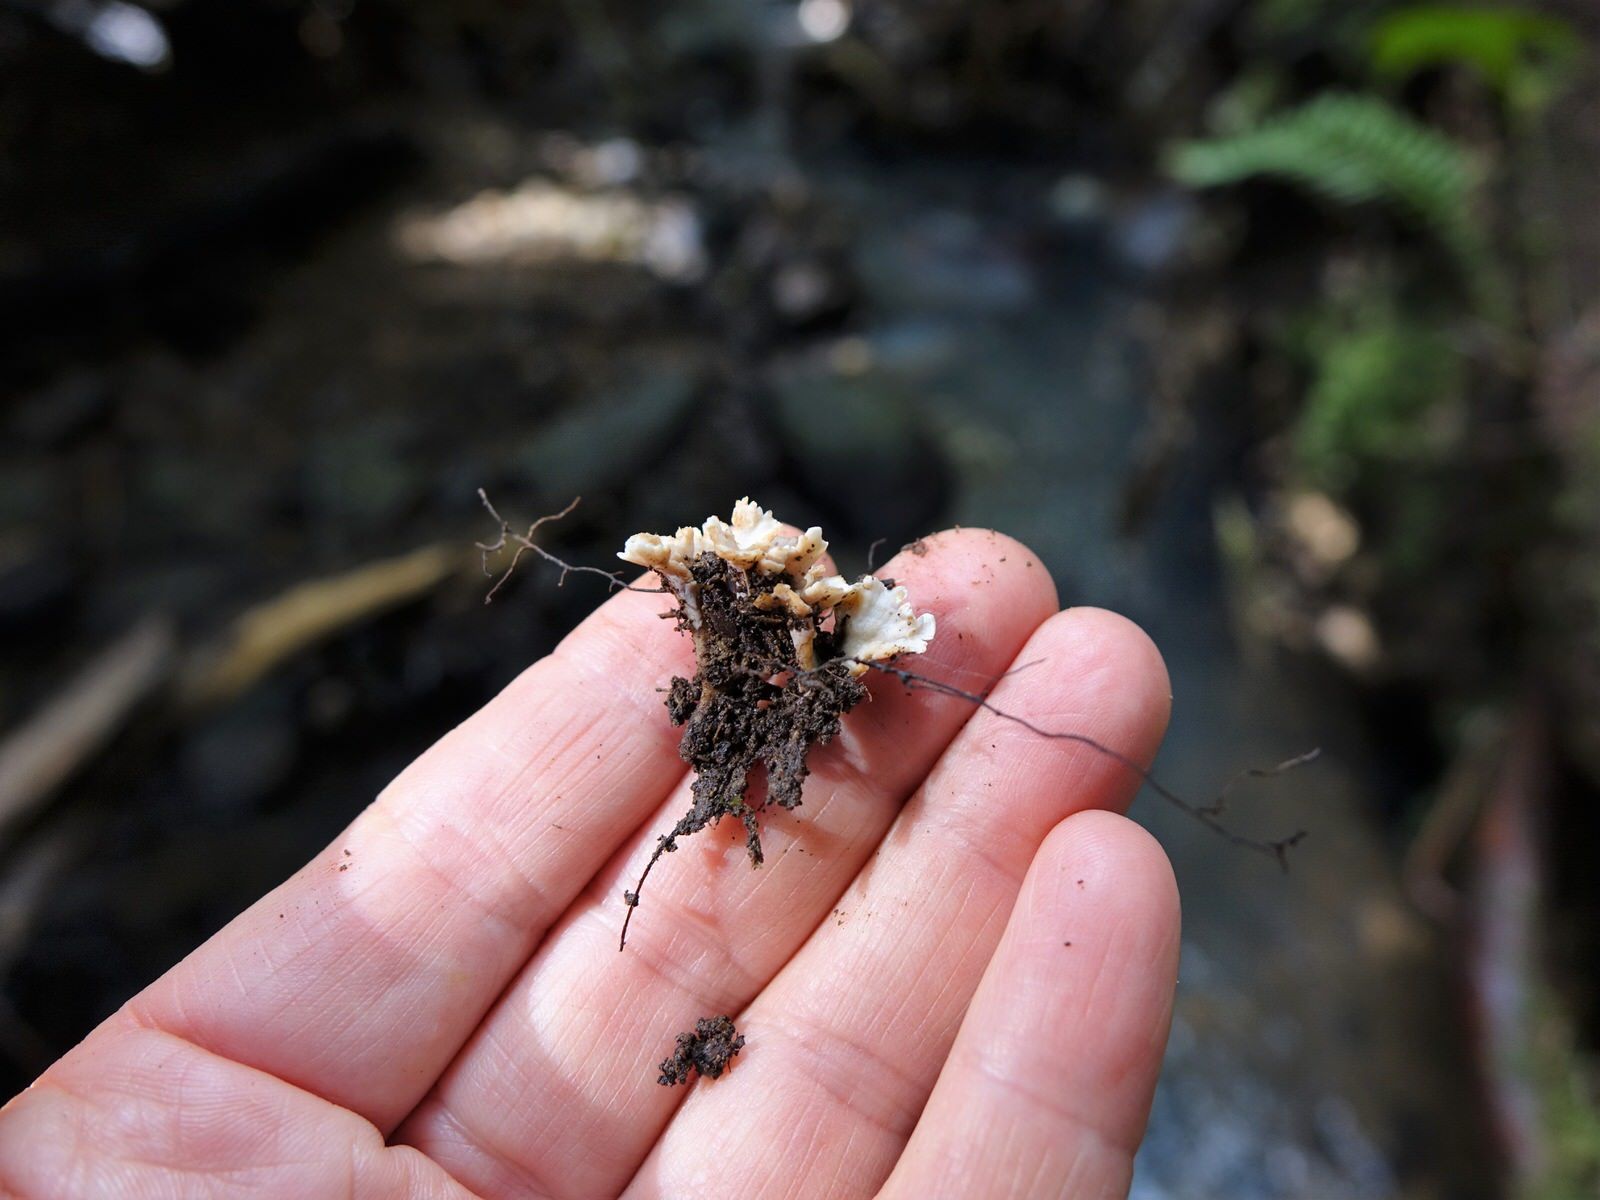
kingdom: Fungi
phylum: Basidiomycota
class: Agaricomycetes
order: Stereopsidales
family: Stereopsidaceae
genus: Stereopsis
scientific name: Stereopsis hiscens
